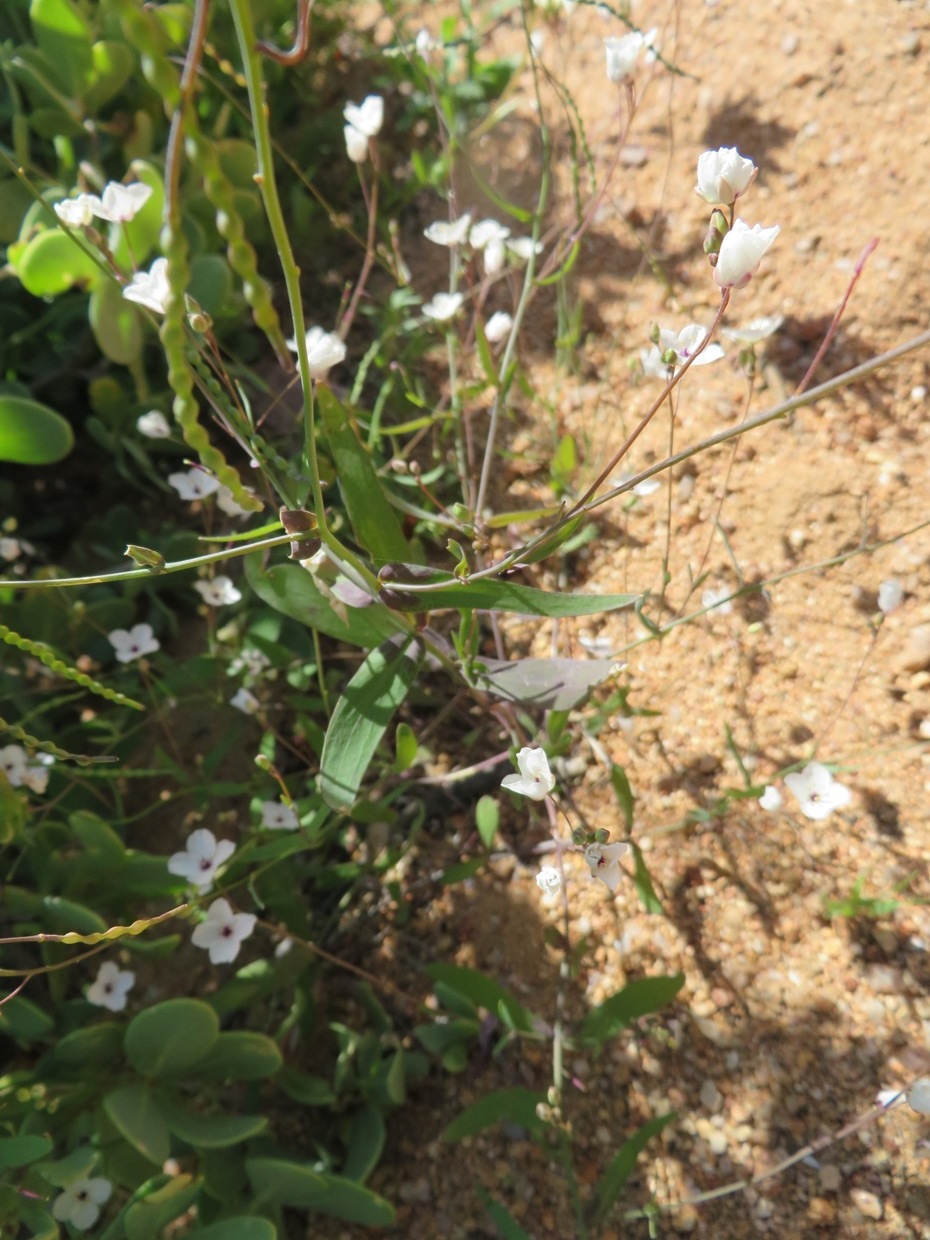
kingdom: Plantae
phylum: Tracheophyta
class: Magnoliopsida
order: Brassicales
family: Brassicaceae
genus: Heliophila
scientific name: Heliophila amplexicaulis
